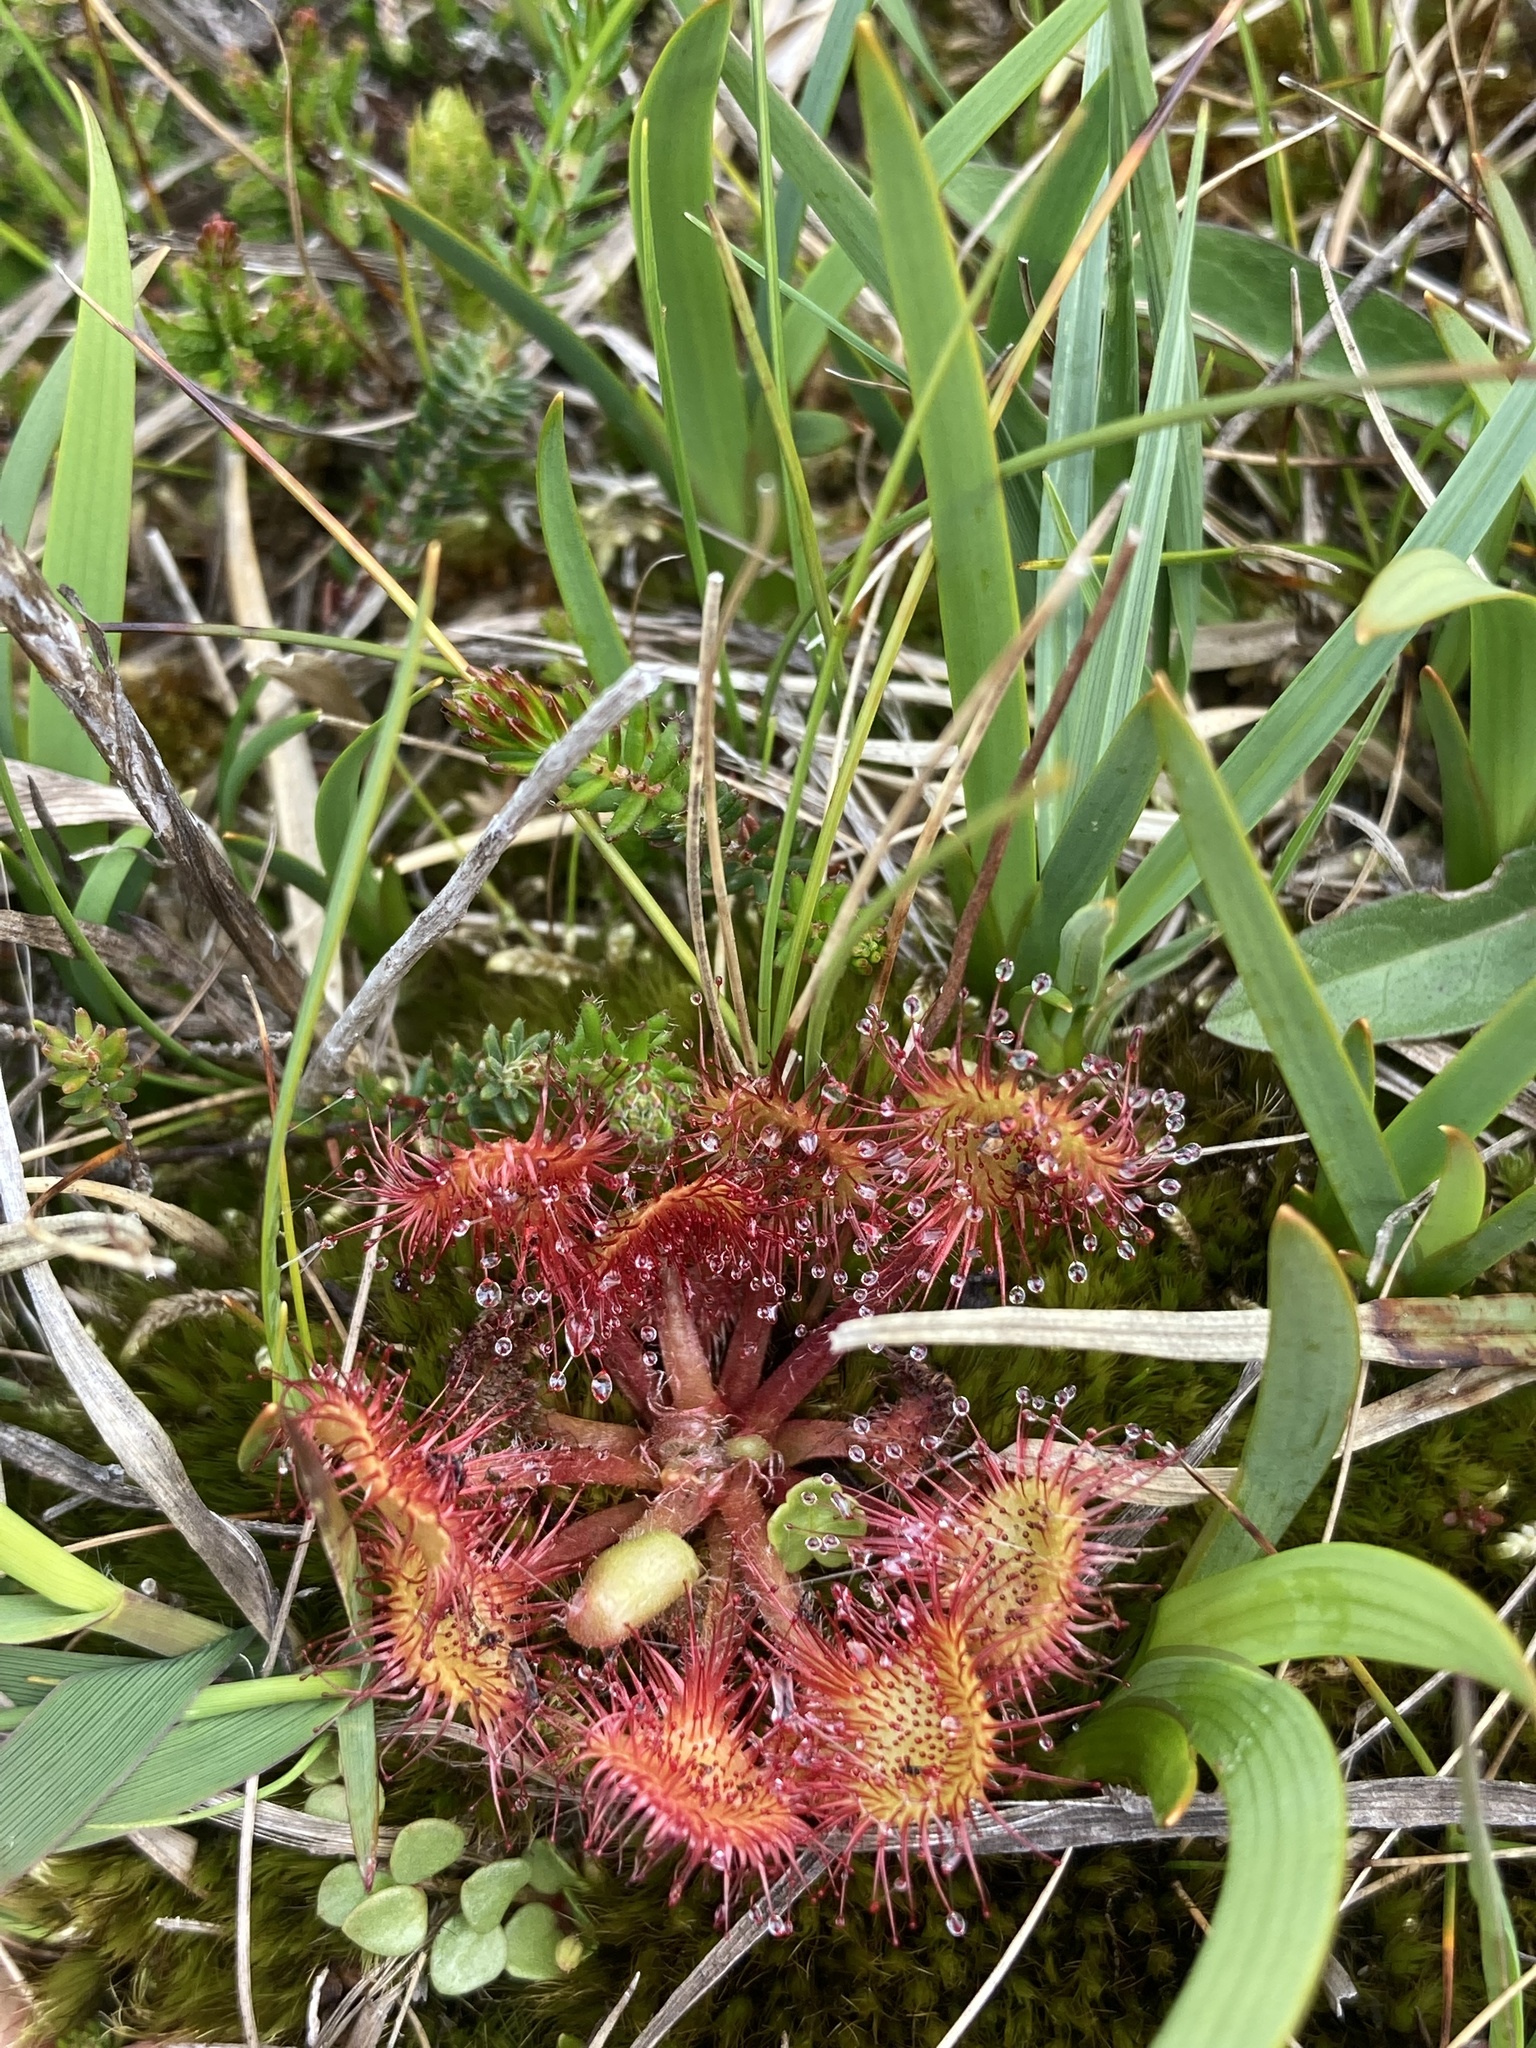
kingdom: Plantae
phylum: Tracheophyta
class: Magnoliopsida
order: Caryophyllales
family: Droseraceae
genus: Drosera
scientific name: Drosera rotundifolia
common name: Round-leaved sundew
